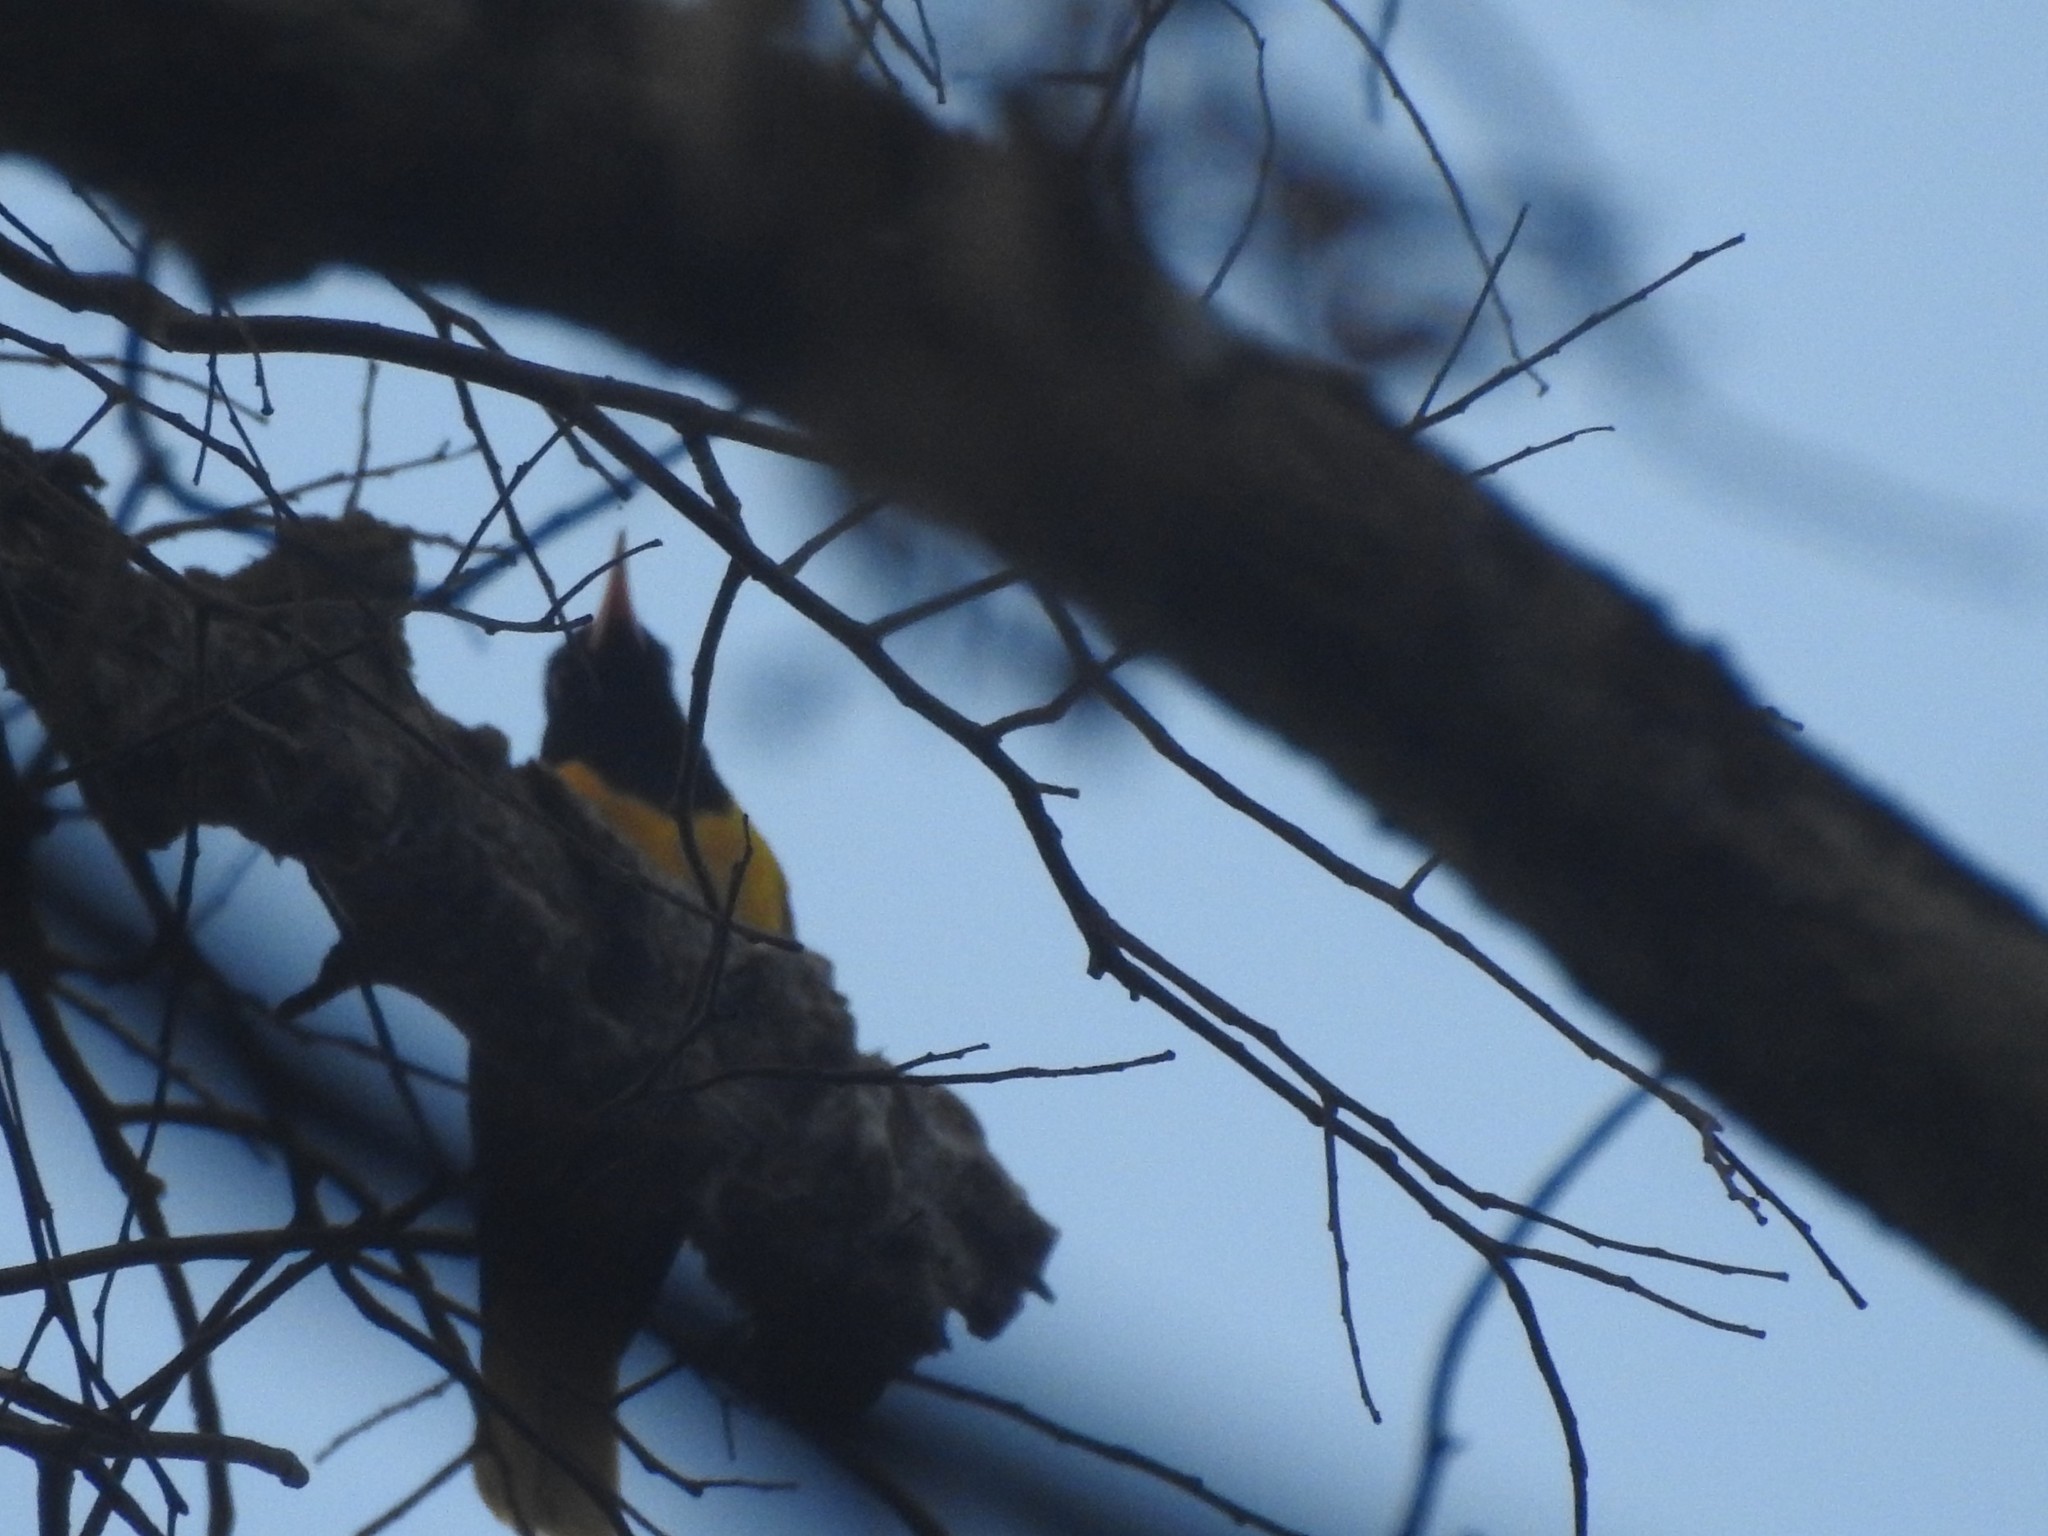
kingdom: Animalia
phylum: Chordata
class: Aves
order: Passeriformes
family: Oriolidae
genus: Oriolus
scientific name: Oriolus xanthornus
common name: Black-hooded oriole
